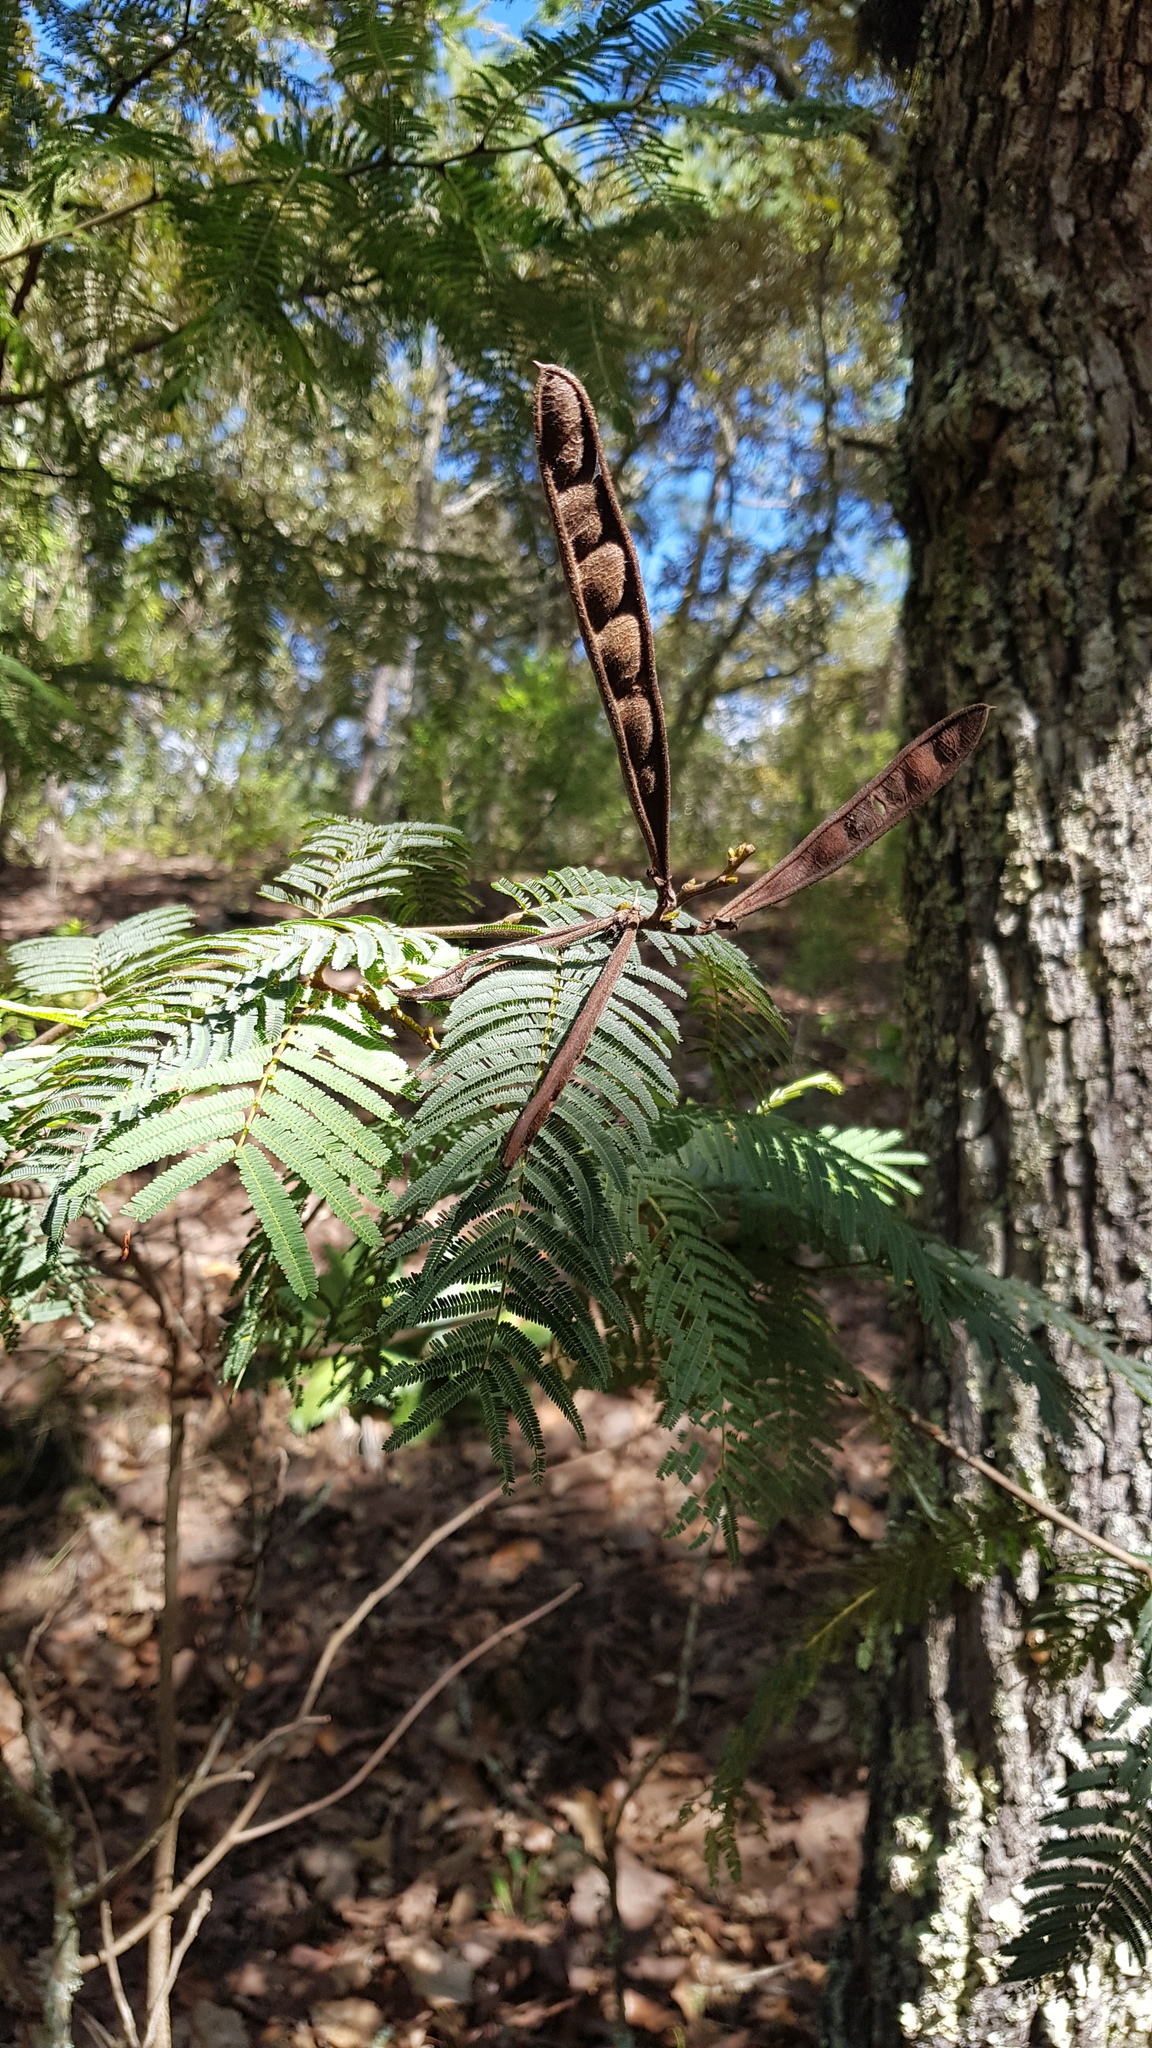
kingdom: Plantae
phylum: Tracheophyta
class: Magnoliopsida
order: Fabales
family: Fabaceae
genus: Calliandra
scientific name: Calliandra houstoniana
